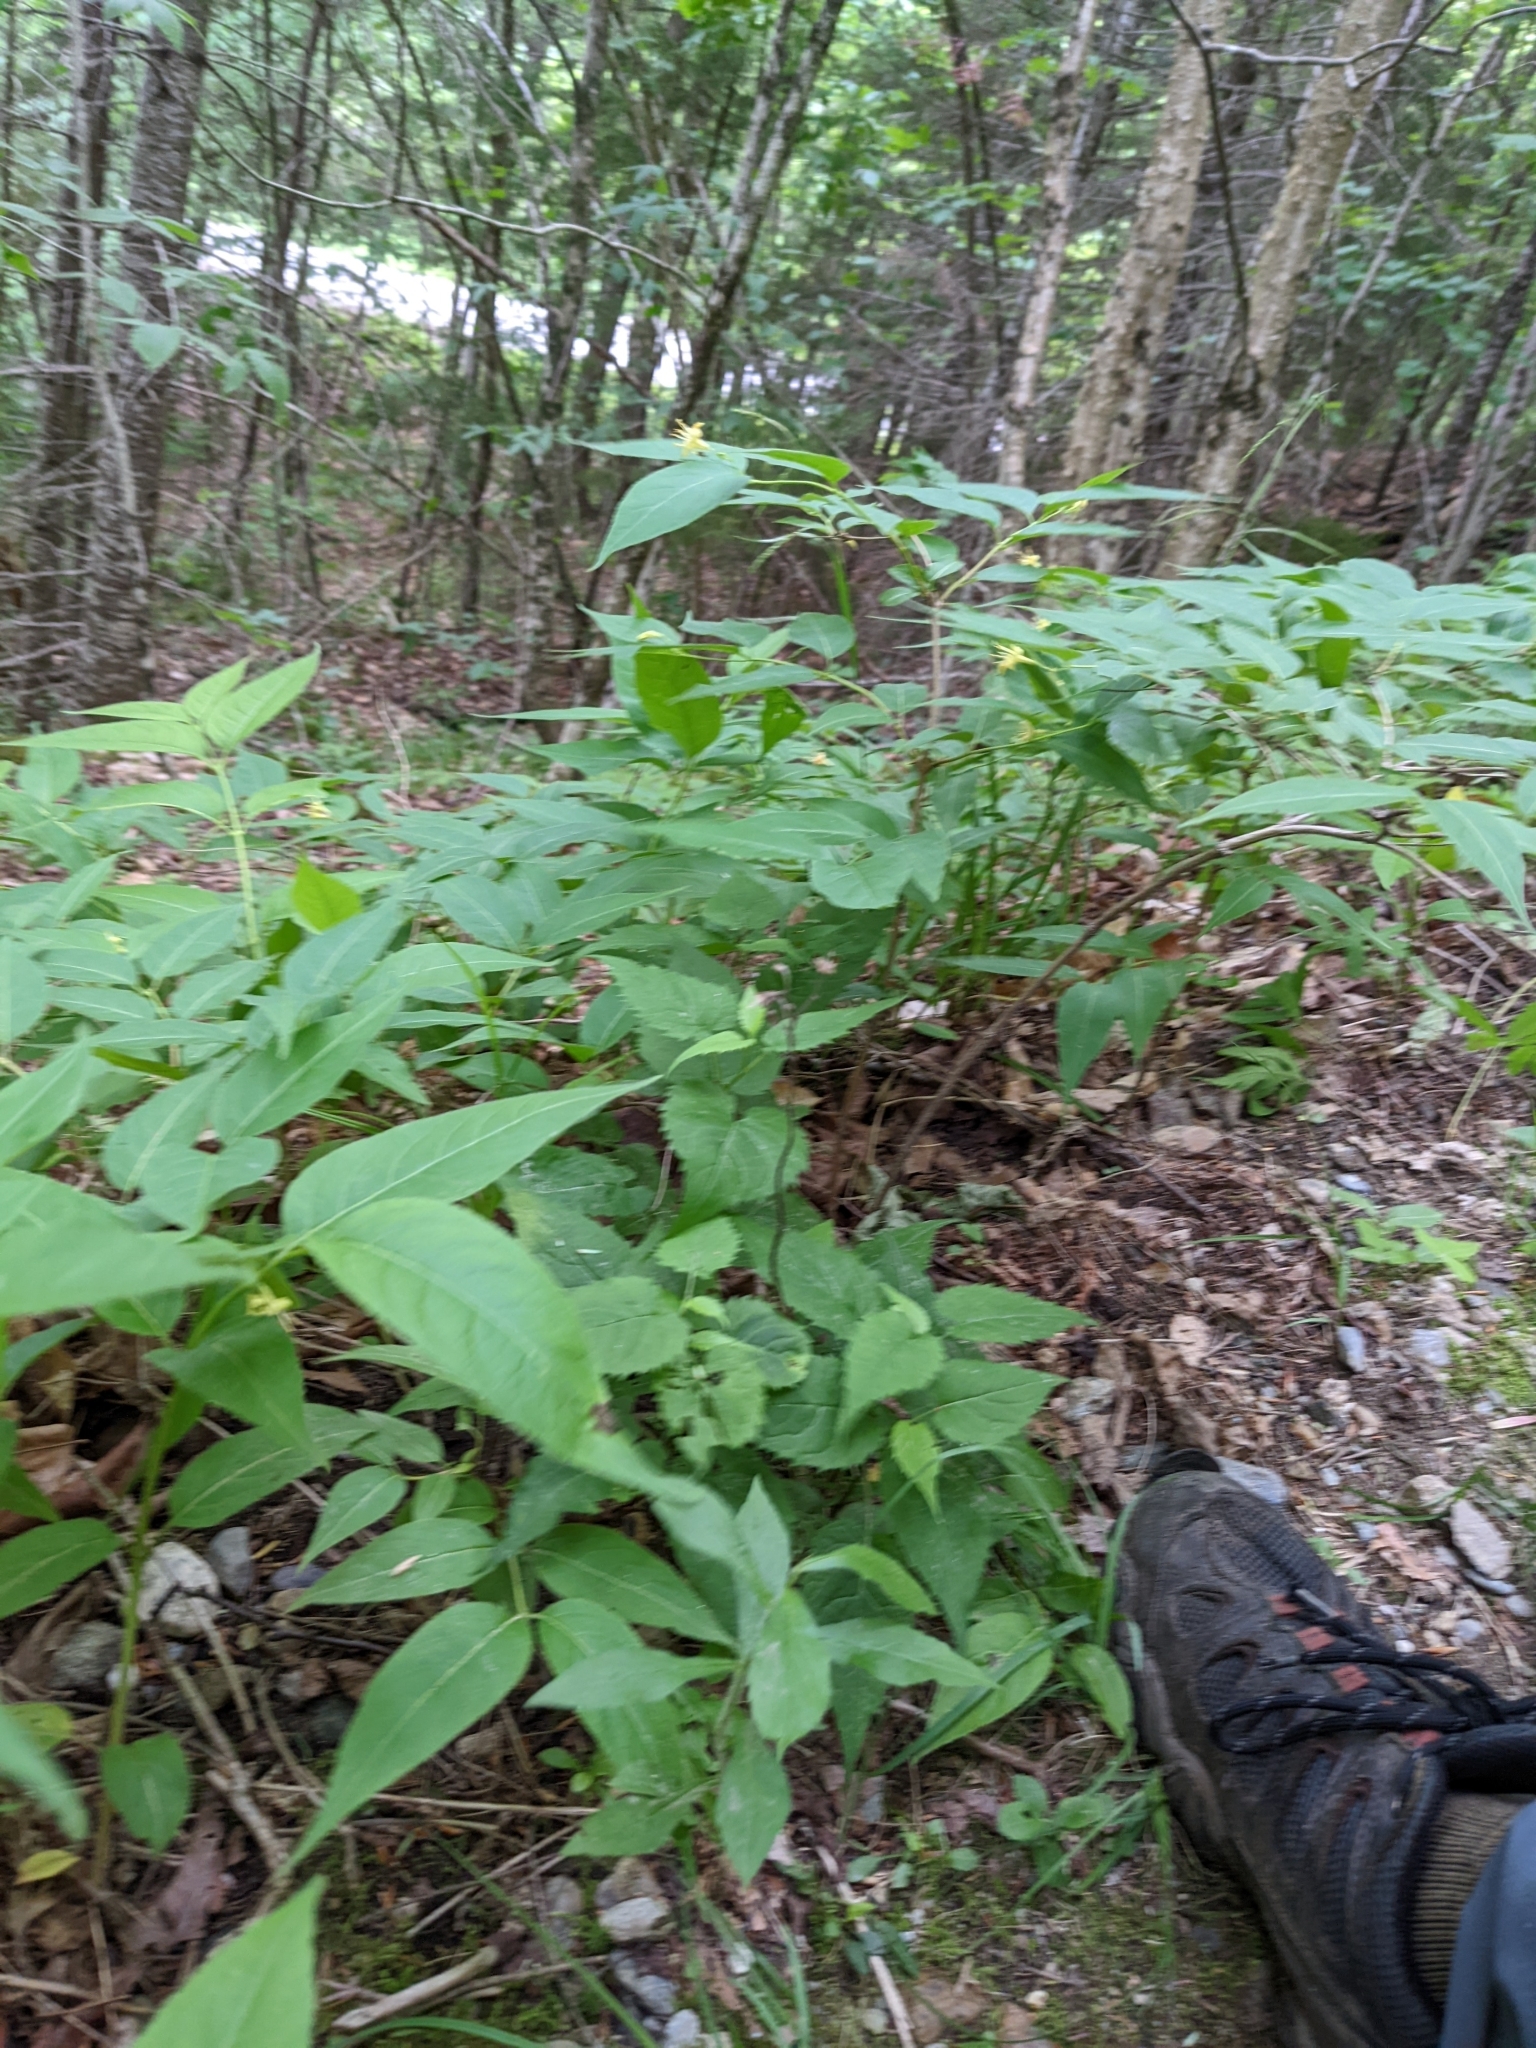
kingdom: Plantae
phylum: Tracheophyta
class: Magnoliopsida
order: Dipsacales
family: Caprifoliaceae
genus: Diervilla
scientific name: Diervilla lonicera
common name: Bush-honeysuckle
